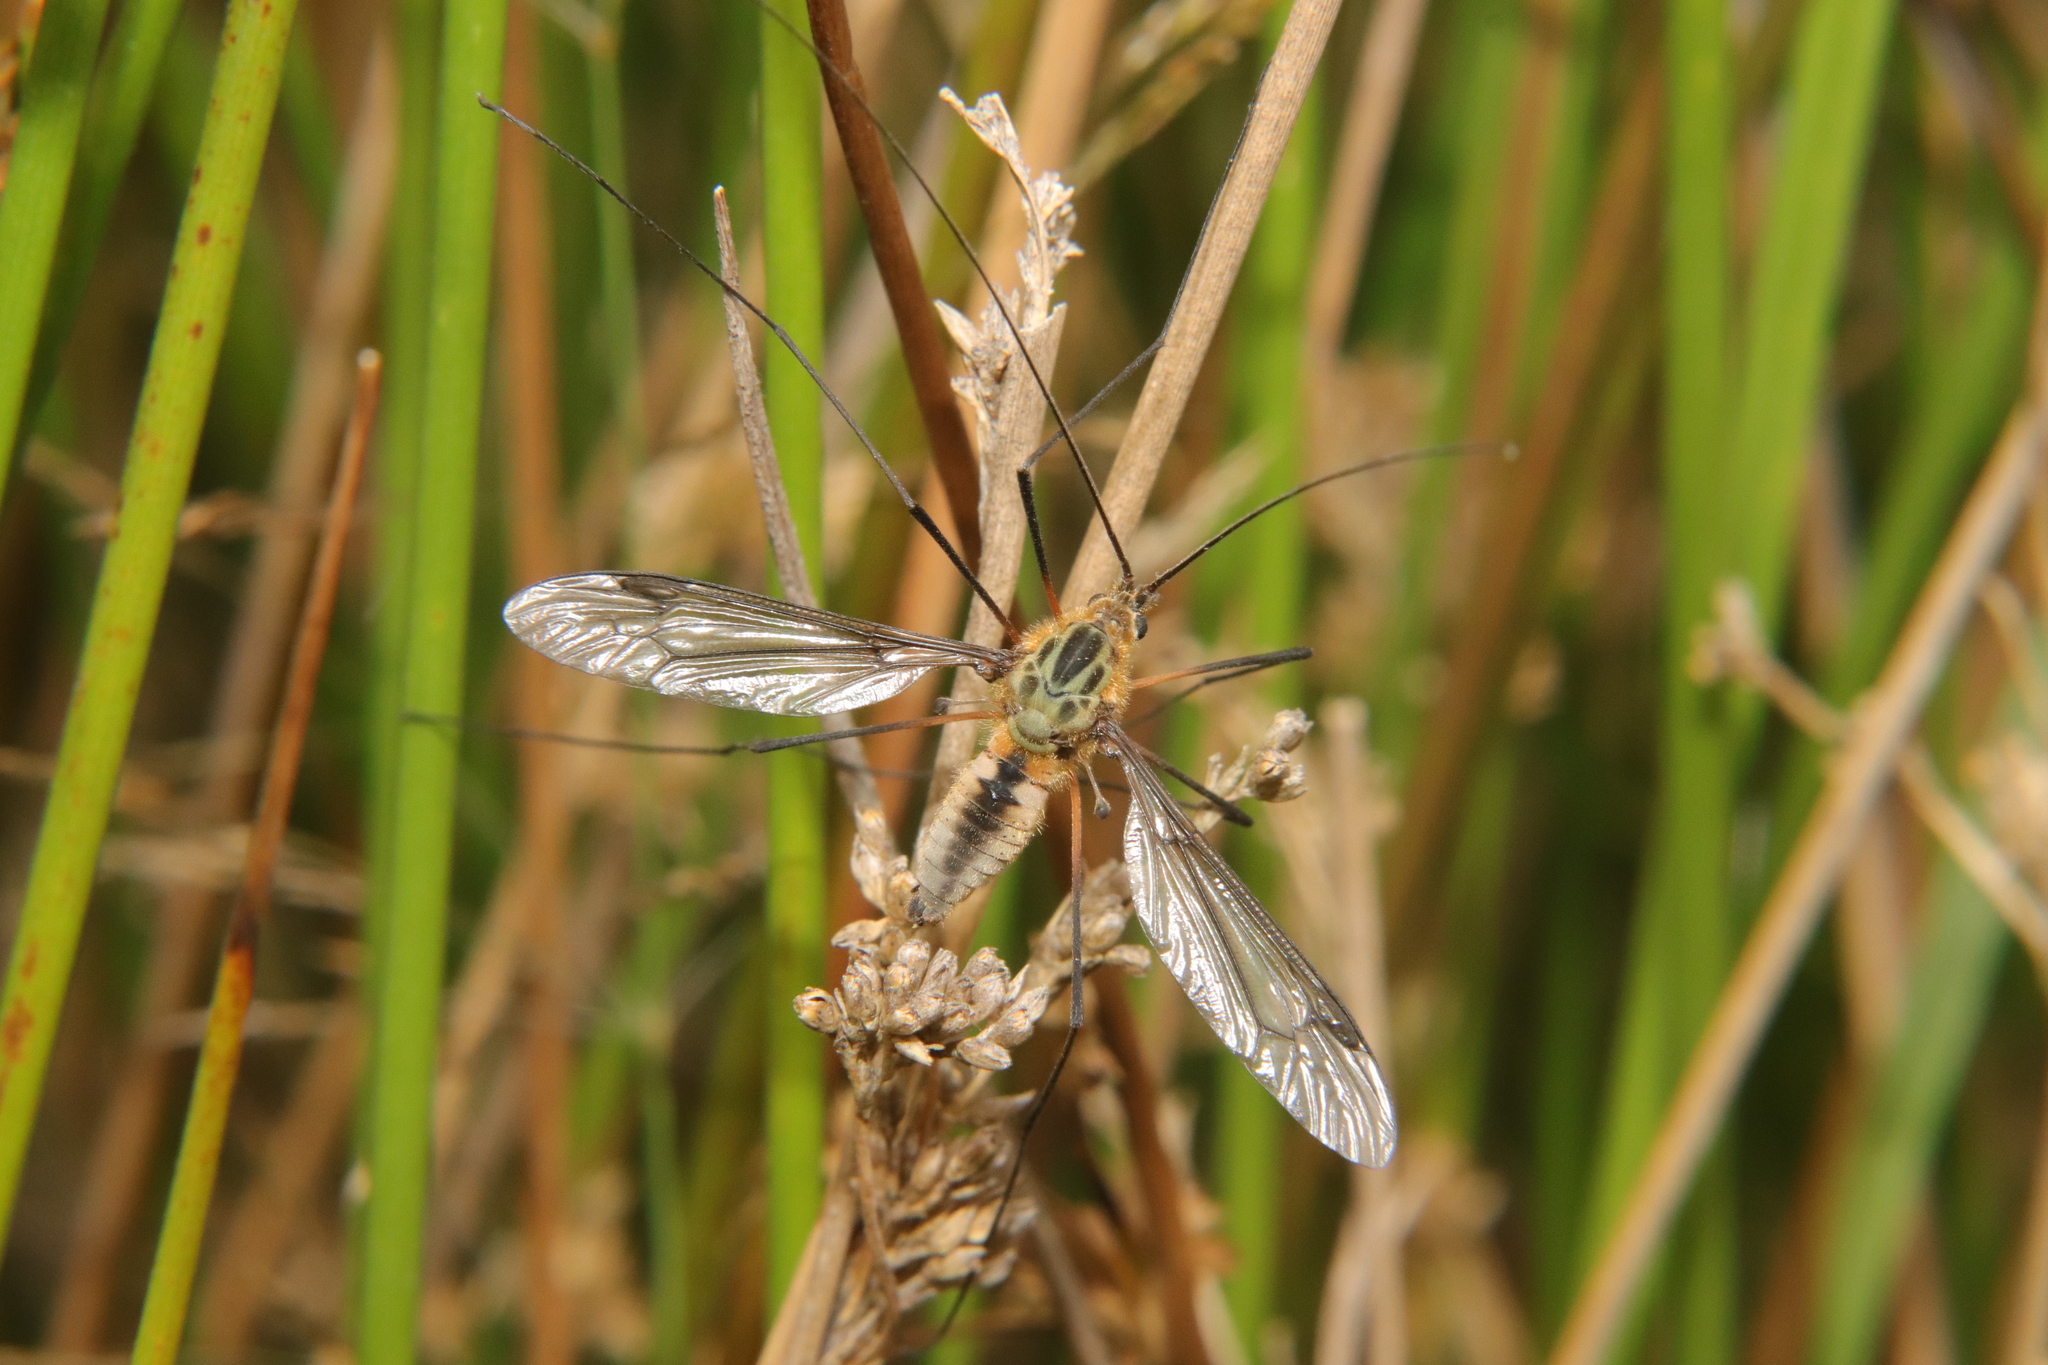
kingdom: Animalia
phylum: Arthropoda
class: Insecta
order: Diptera
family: Tipulidae
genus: Leptotarsus
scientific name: Leptotarsus vulpinus
